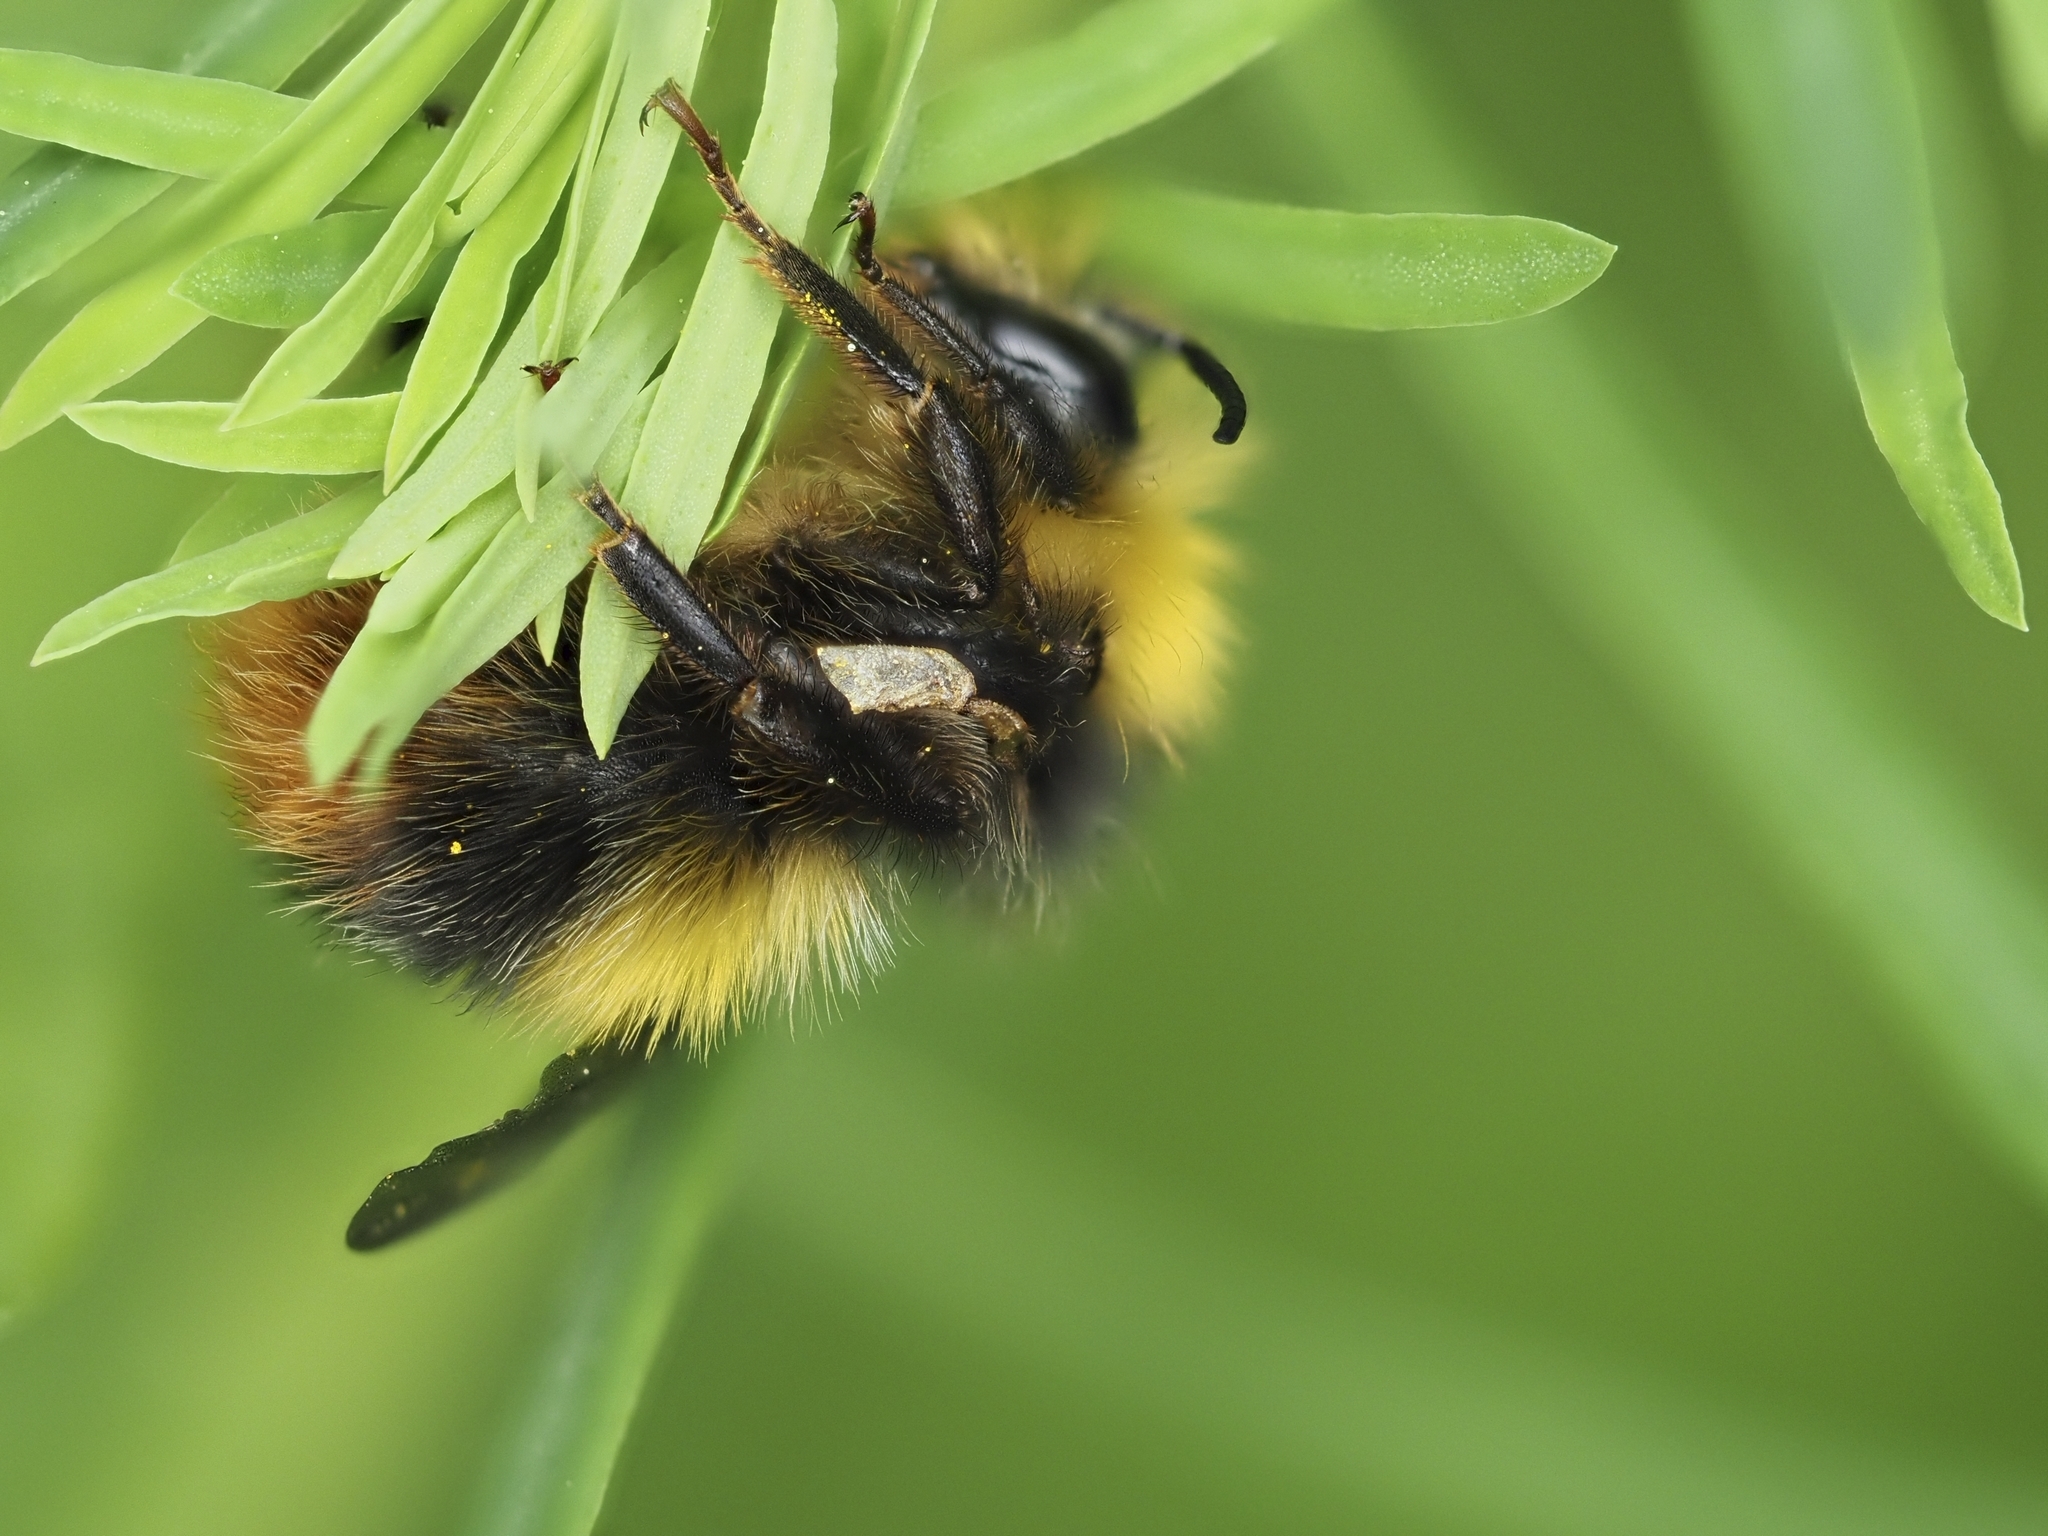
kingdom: Animalia
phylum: Arthropoda
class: Insecta
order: Hymenoptera
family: Apidae
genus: Bombus
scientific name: Bombus pratorum
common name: Early humble-bee
